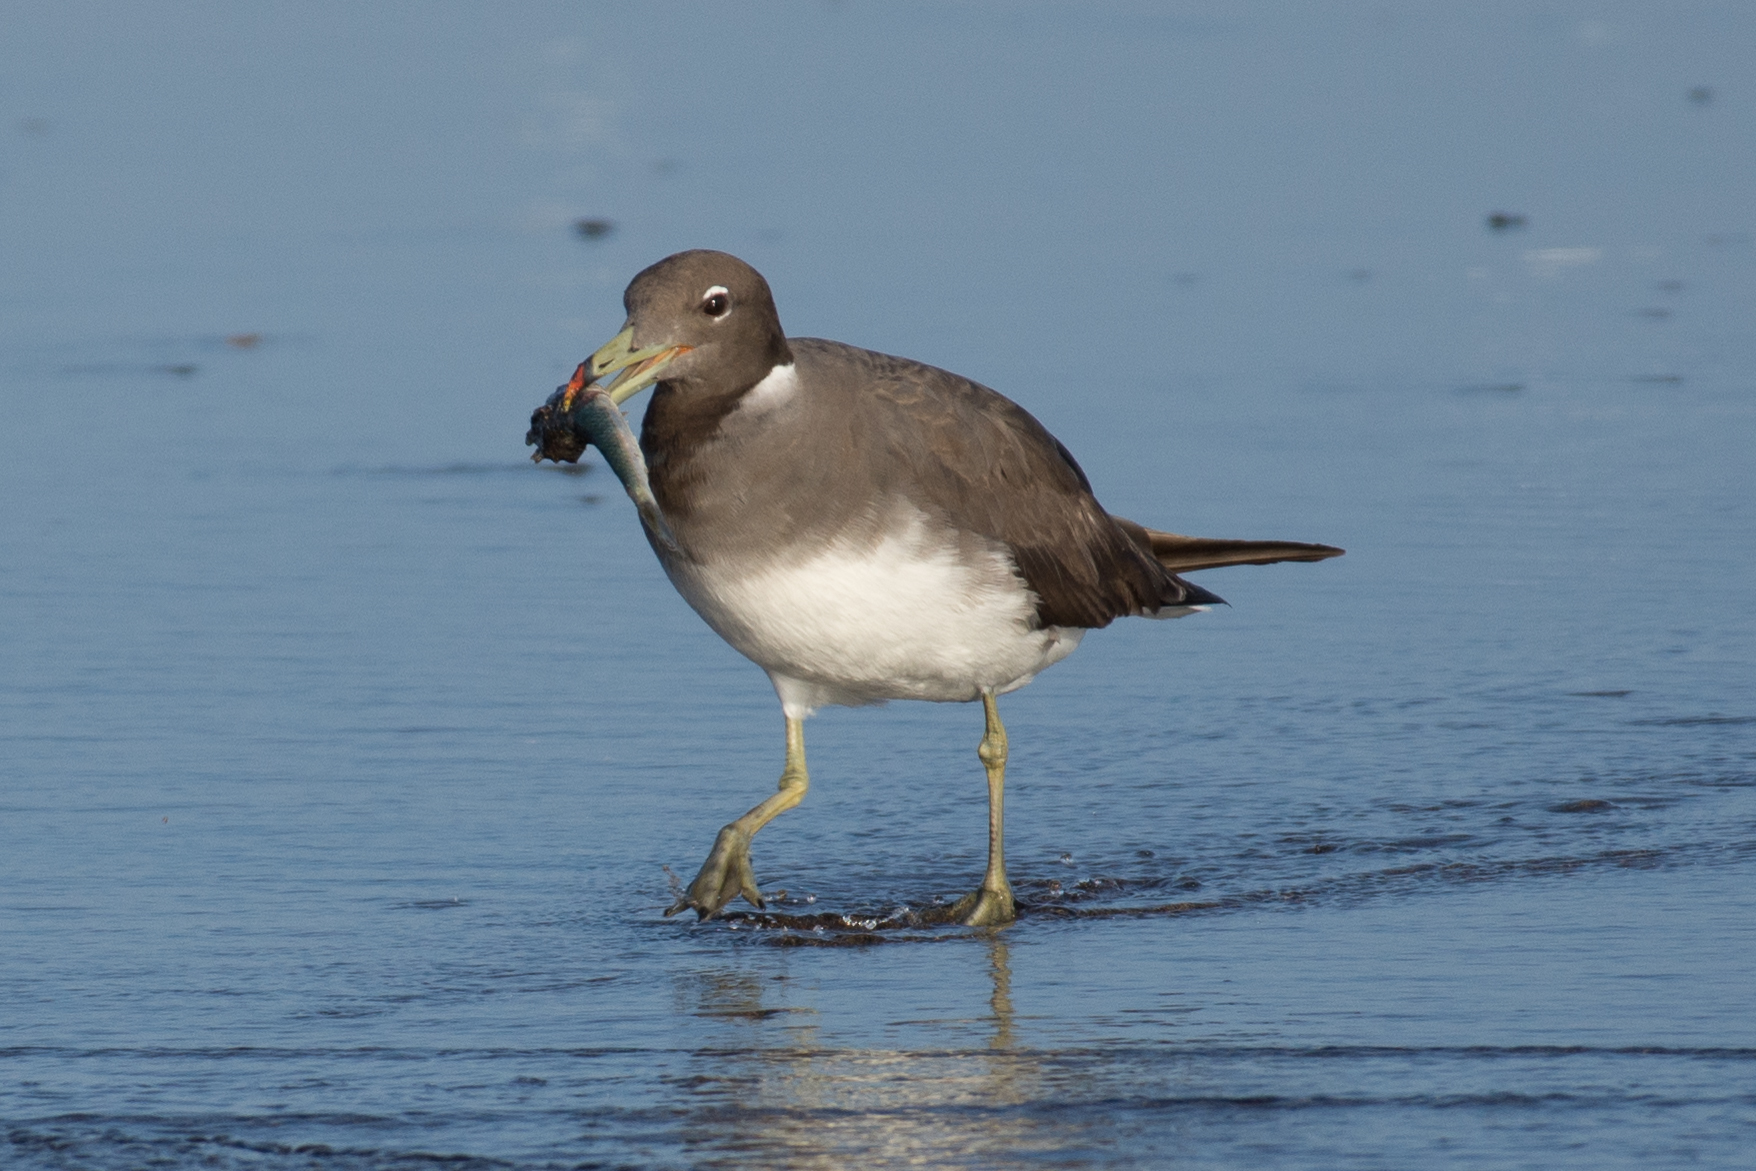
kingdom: Animalia
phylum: Chordata
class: Aves
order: Charadriiformes
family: Laridae
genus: Ichthyaetus
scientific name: Ichthyaetus hemprichii
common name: Sooty gull
